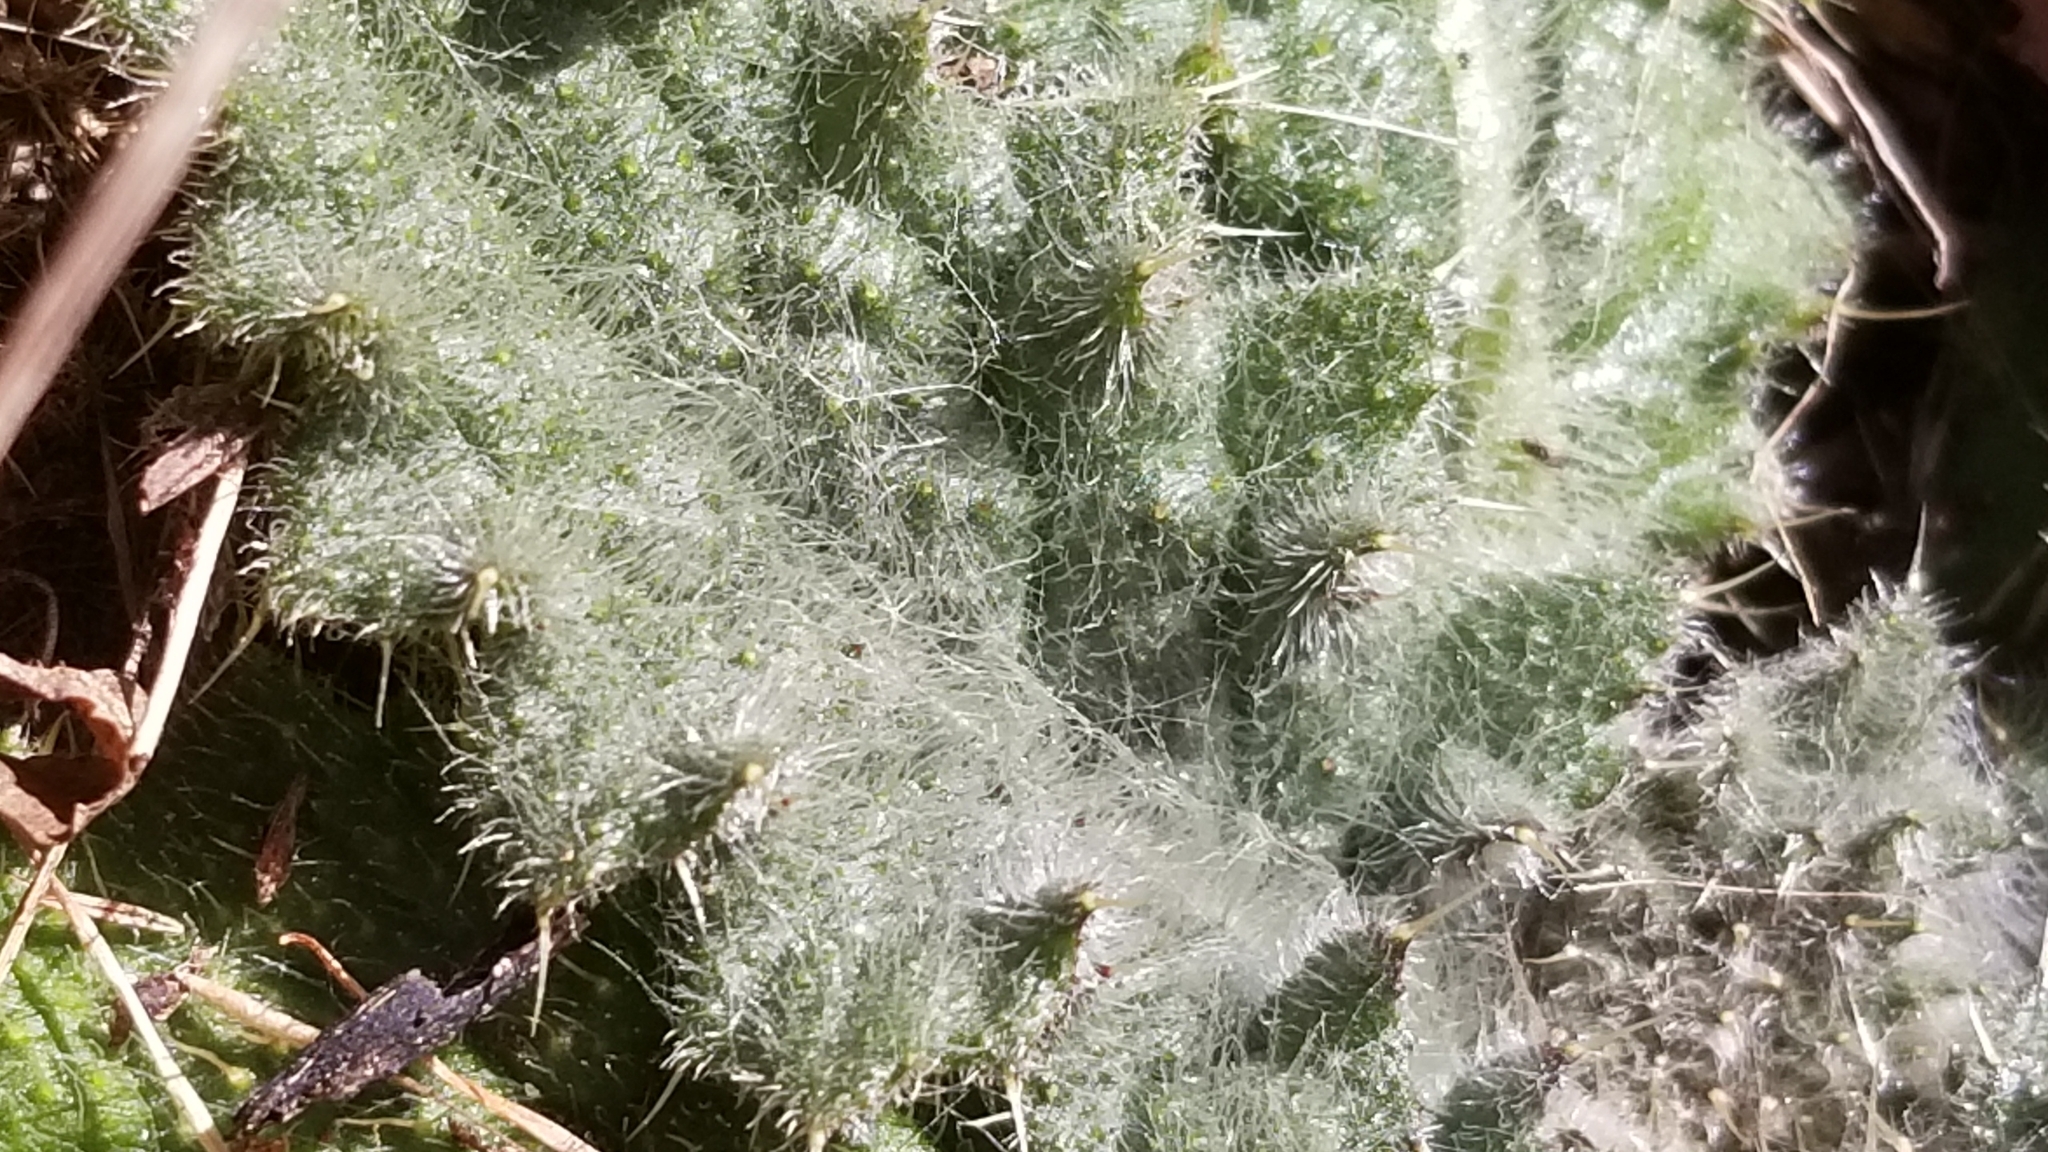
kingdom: Plantae
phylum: Tracheophyta
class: Magnoliopsida
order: Asterales
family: Asteraceae
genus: Cirsium
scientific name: Cirsium vulgare
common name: Bull thistle
